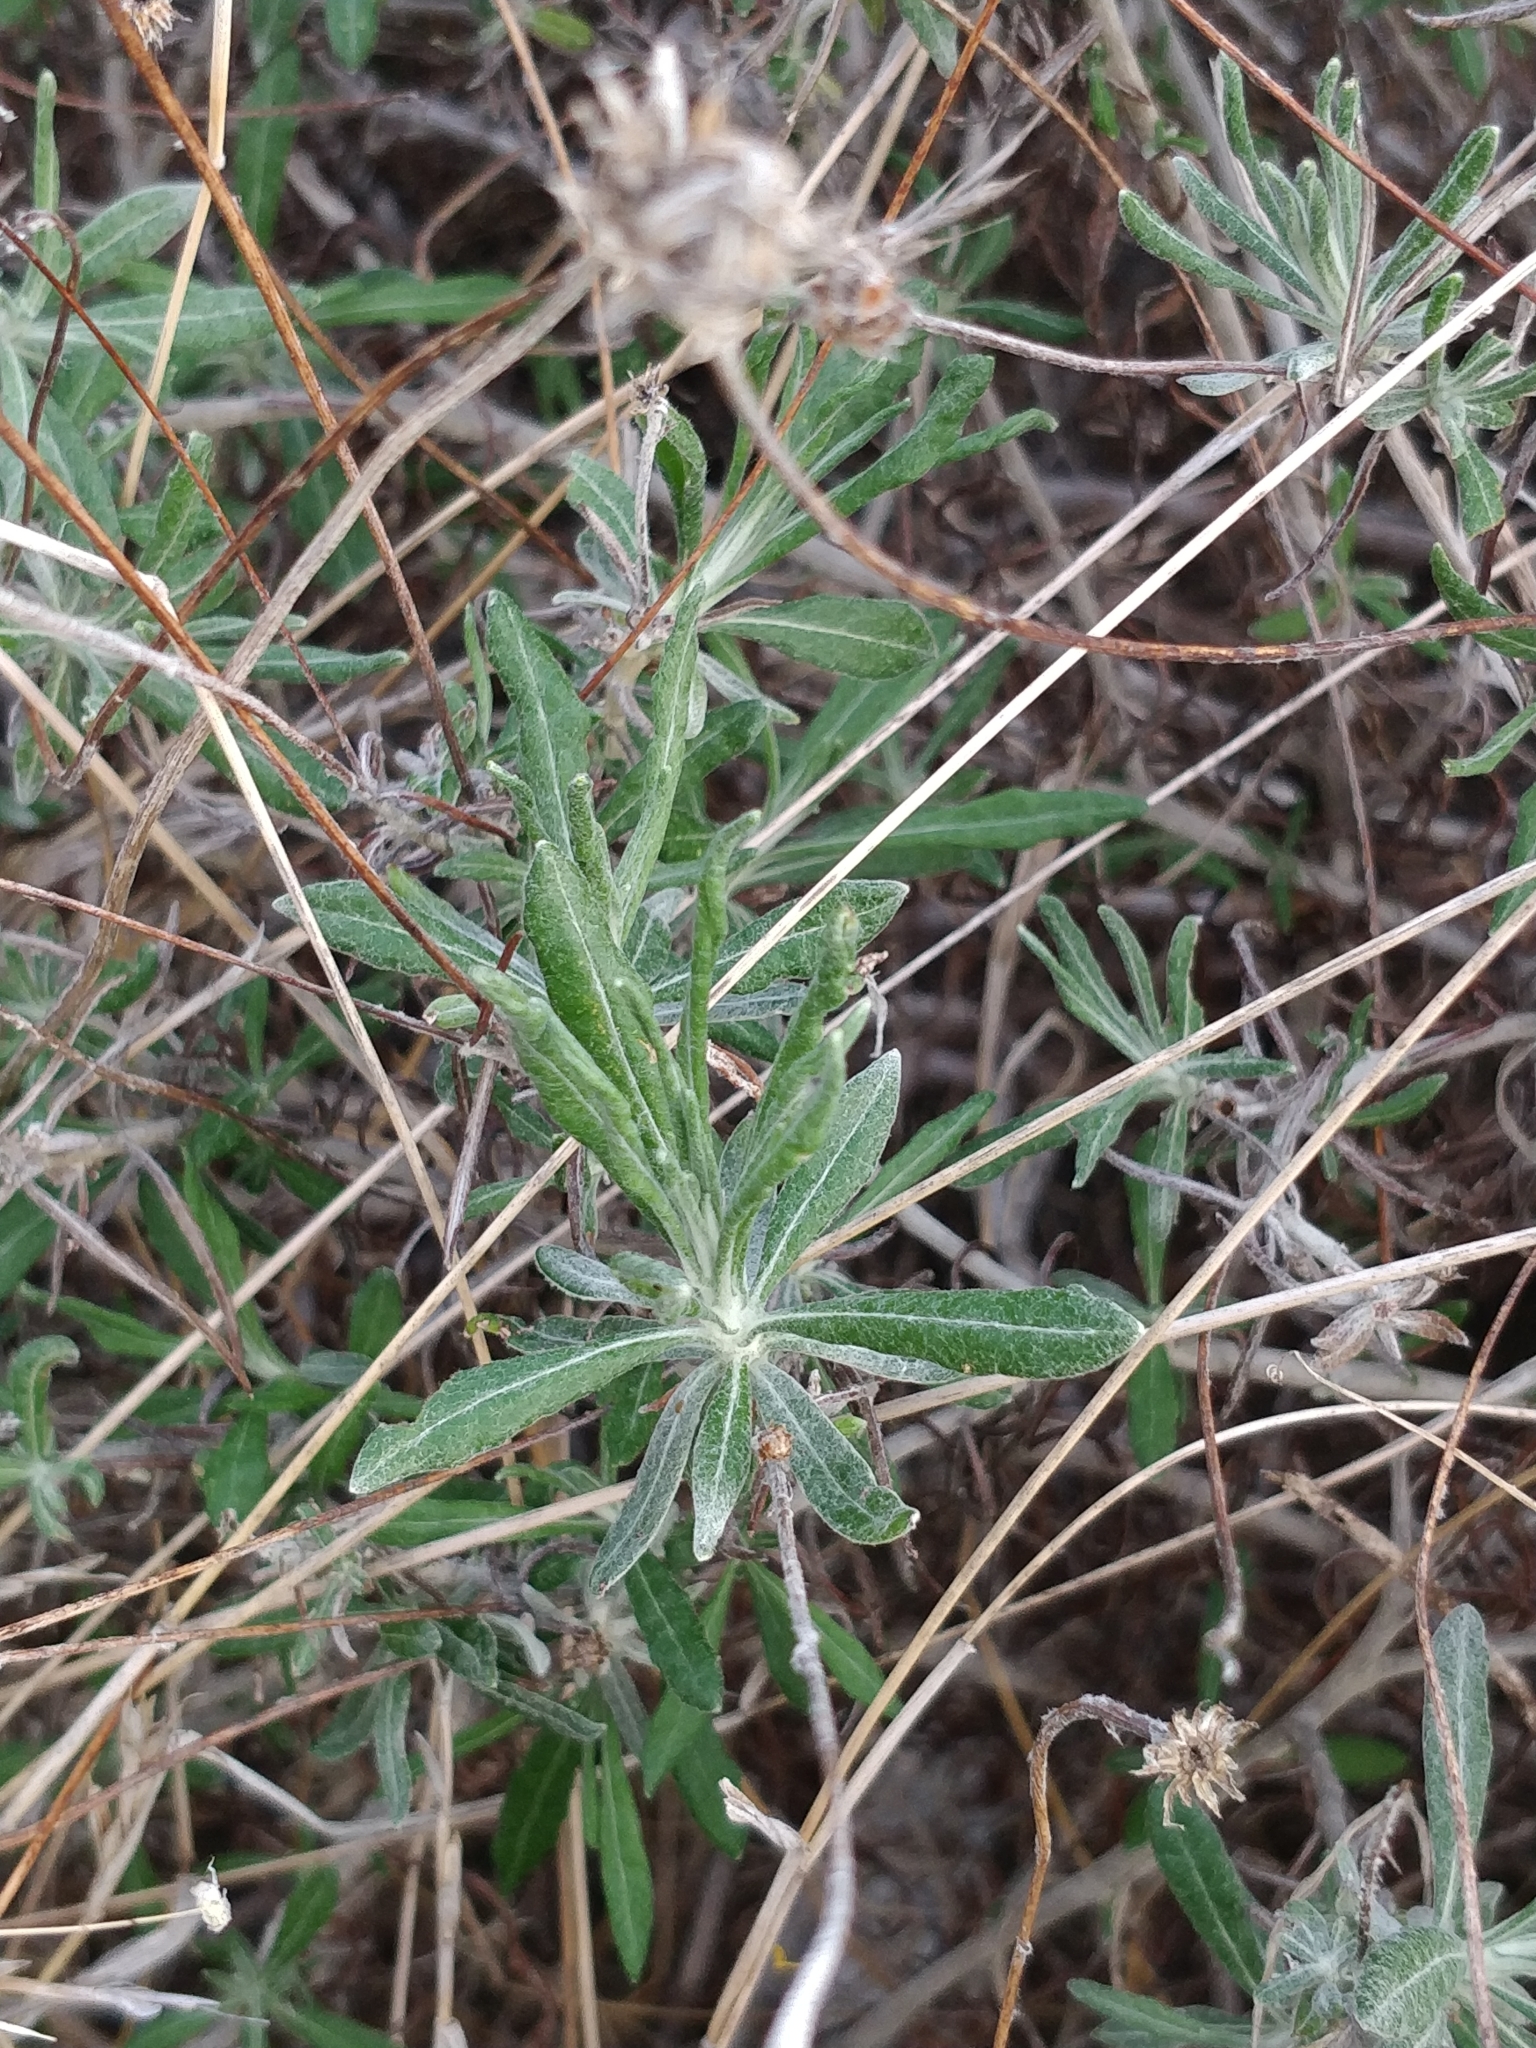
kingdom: Plantae
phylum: Tracheophyta
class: Magnoliopsida
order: Asterales
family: Asteraceae
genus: Phagnalon
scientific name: Phagnalon saxatile
